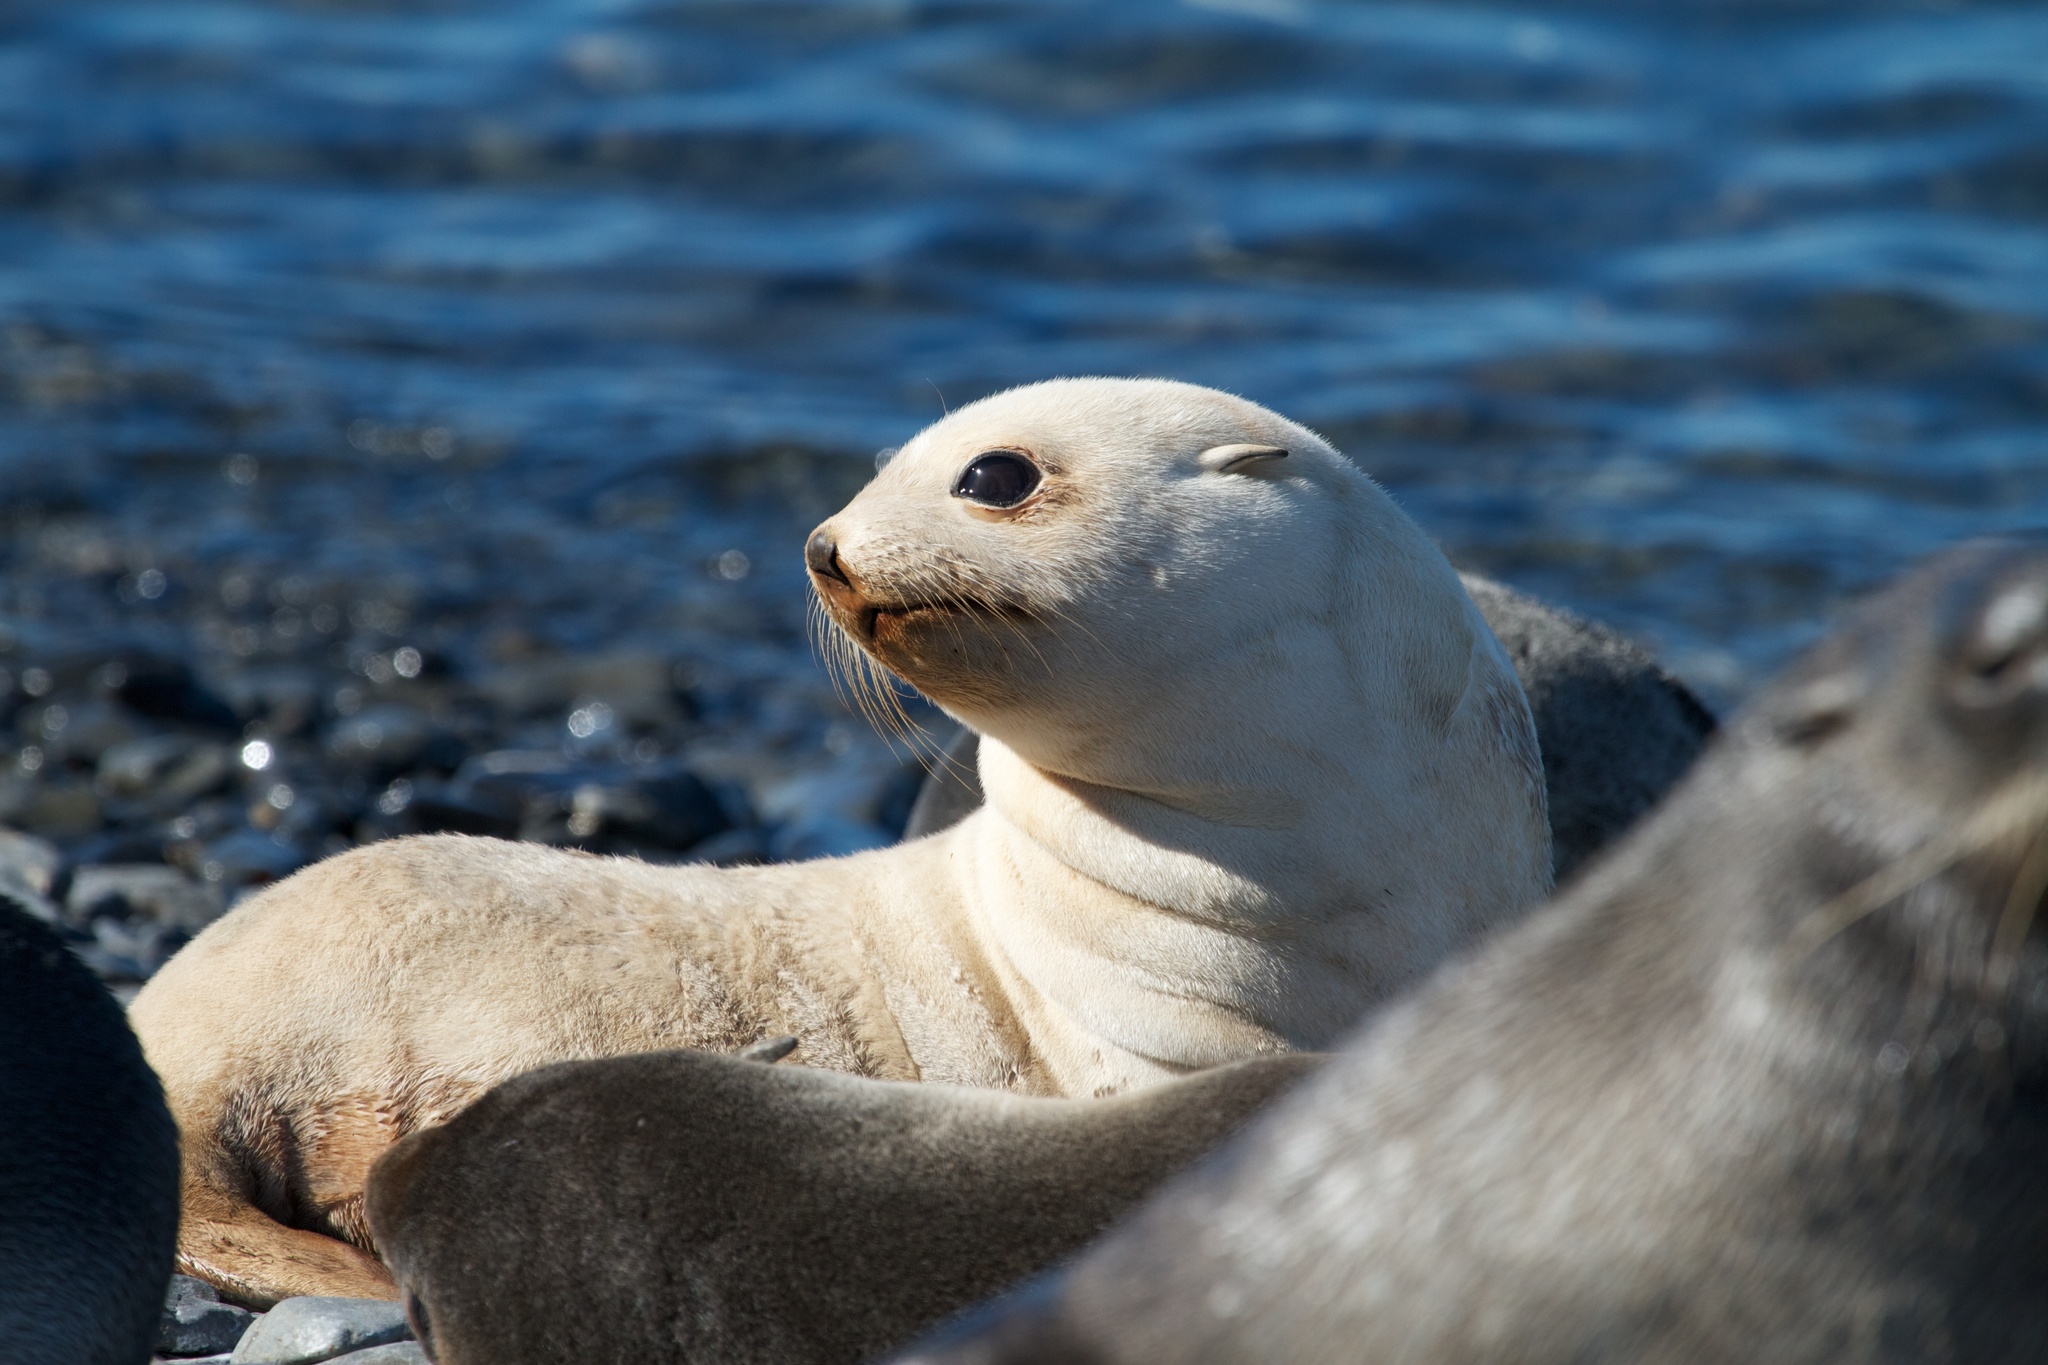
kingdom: Animalia
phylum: Chordata
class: Mammalia
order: Carnivora
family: Otariidae
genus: Arctocephalus
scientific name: Arctocephalus gazella
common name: Antarctic fur seal
